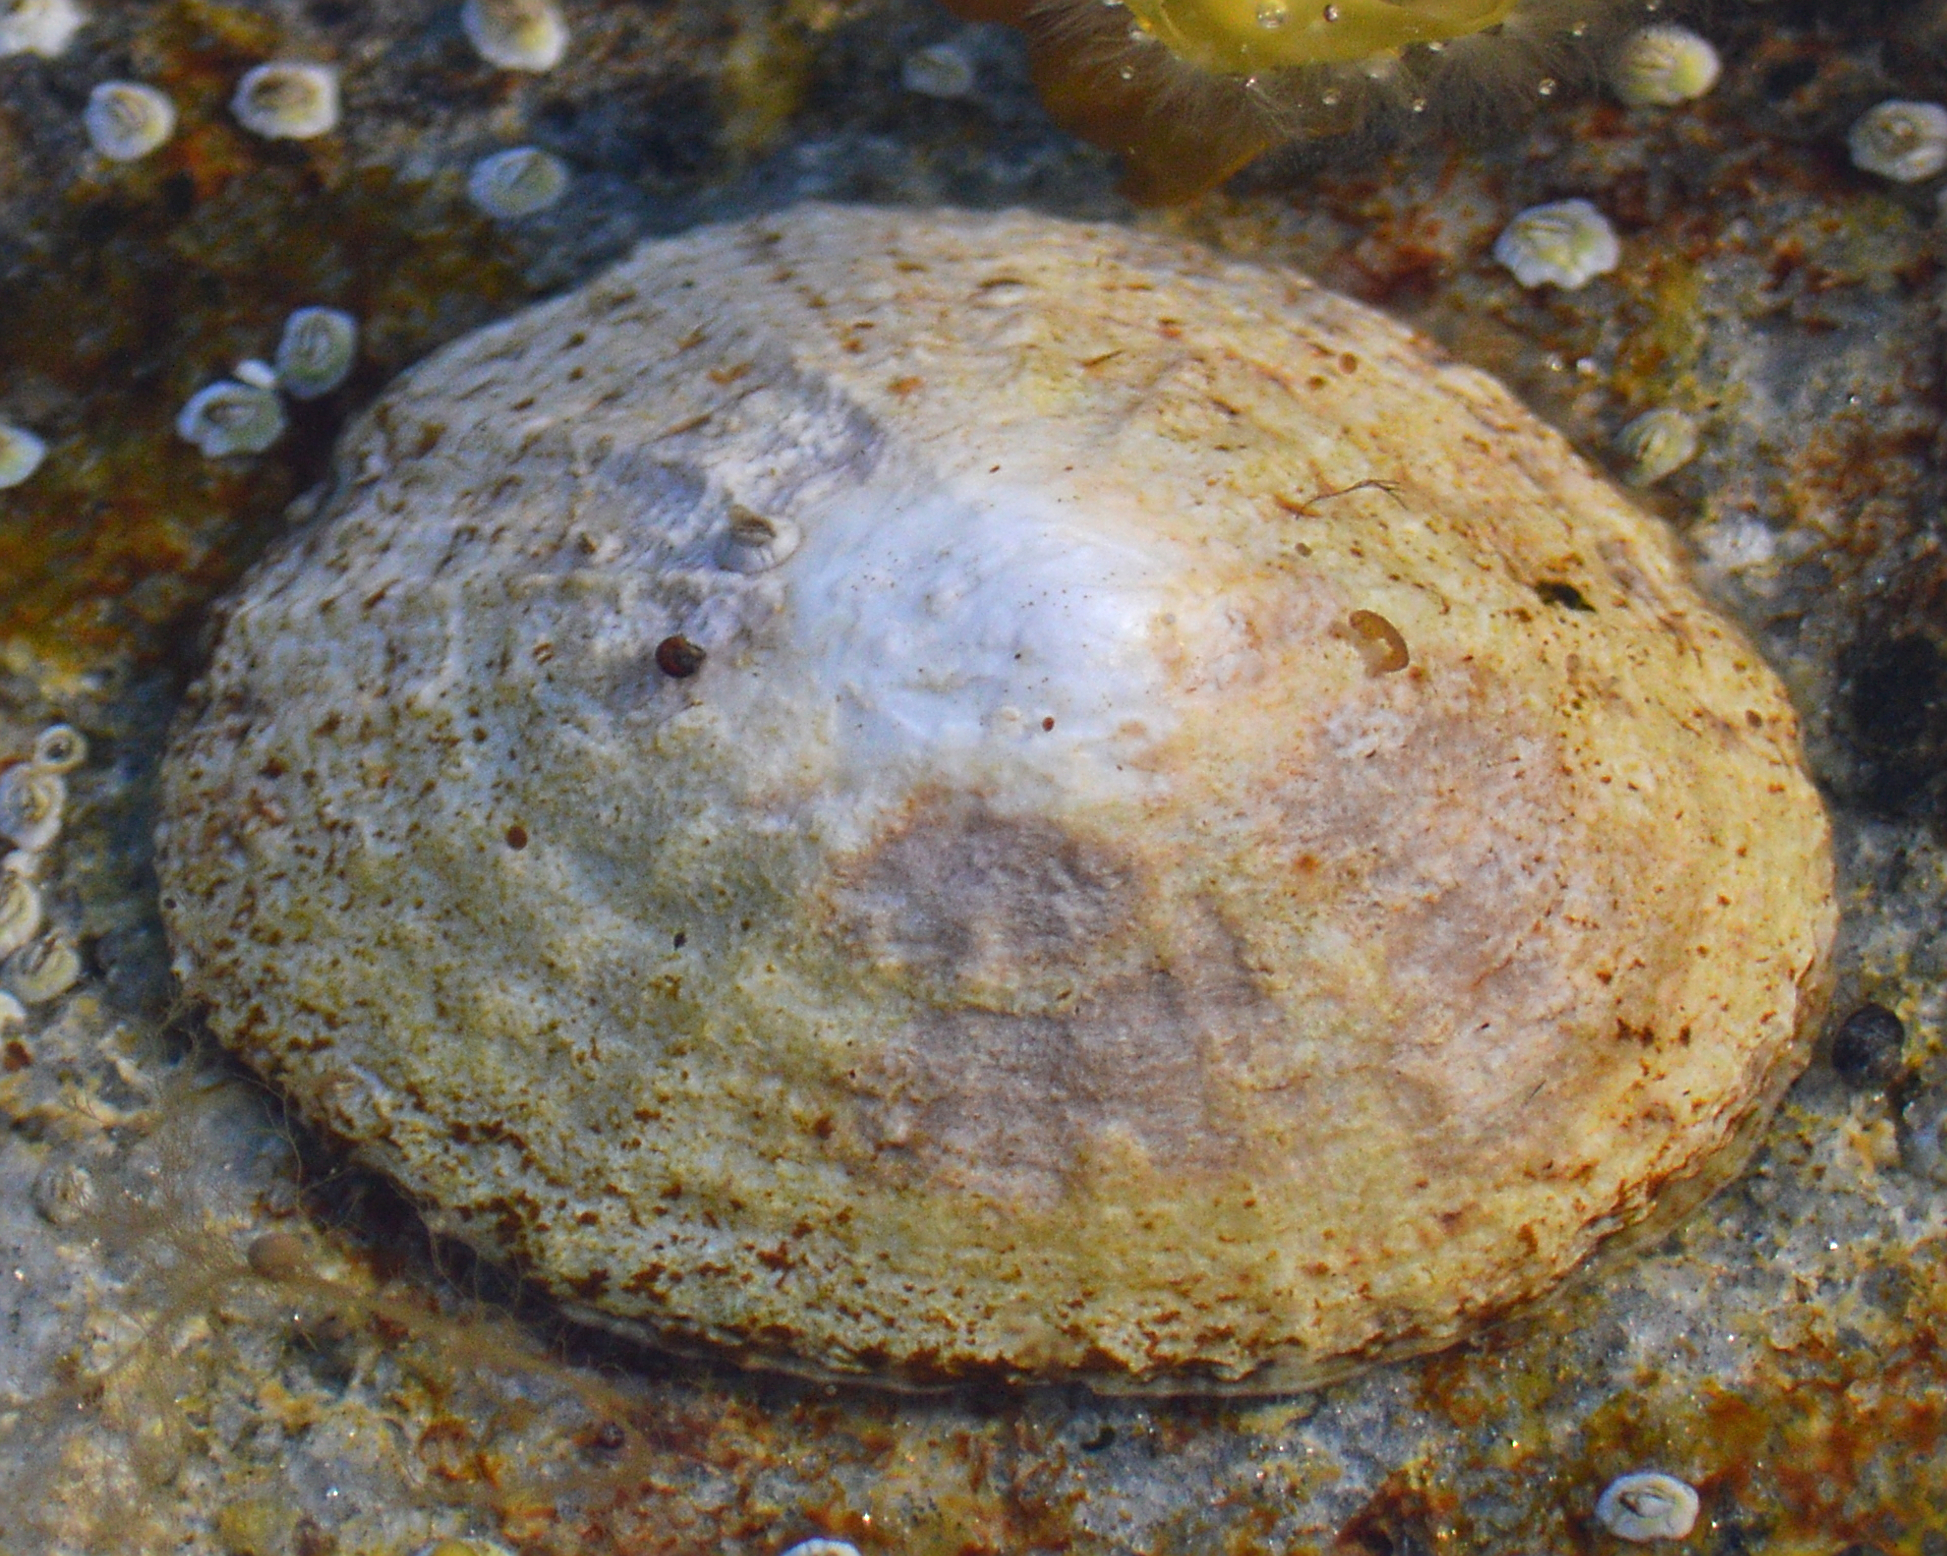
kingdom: Animalia
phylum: Mollusca
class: Gastropoda
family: Patellidae
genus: Patella
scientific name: Patella vulgata
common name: Common limpet
